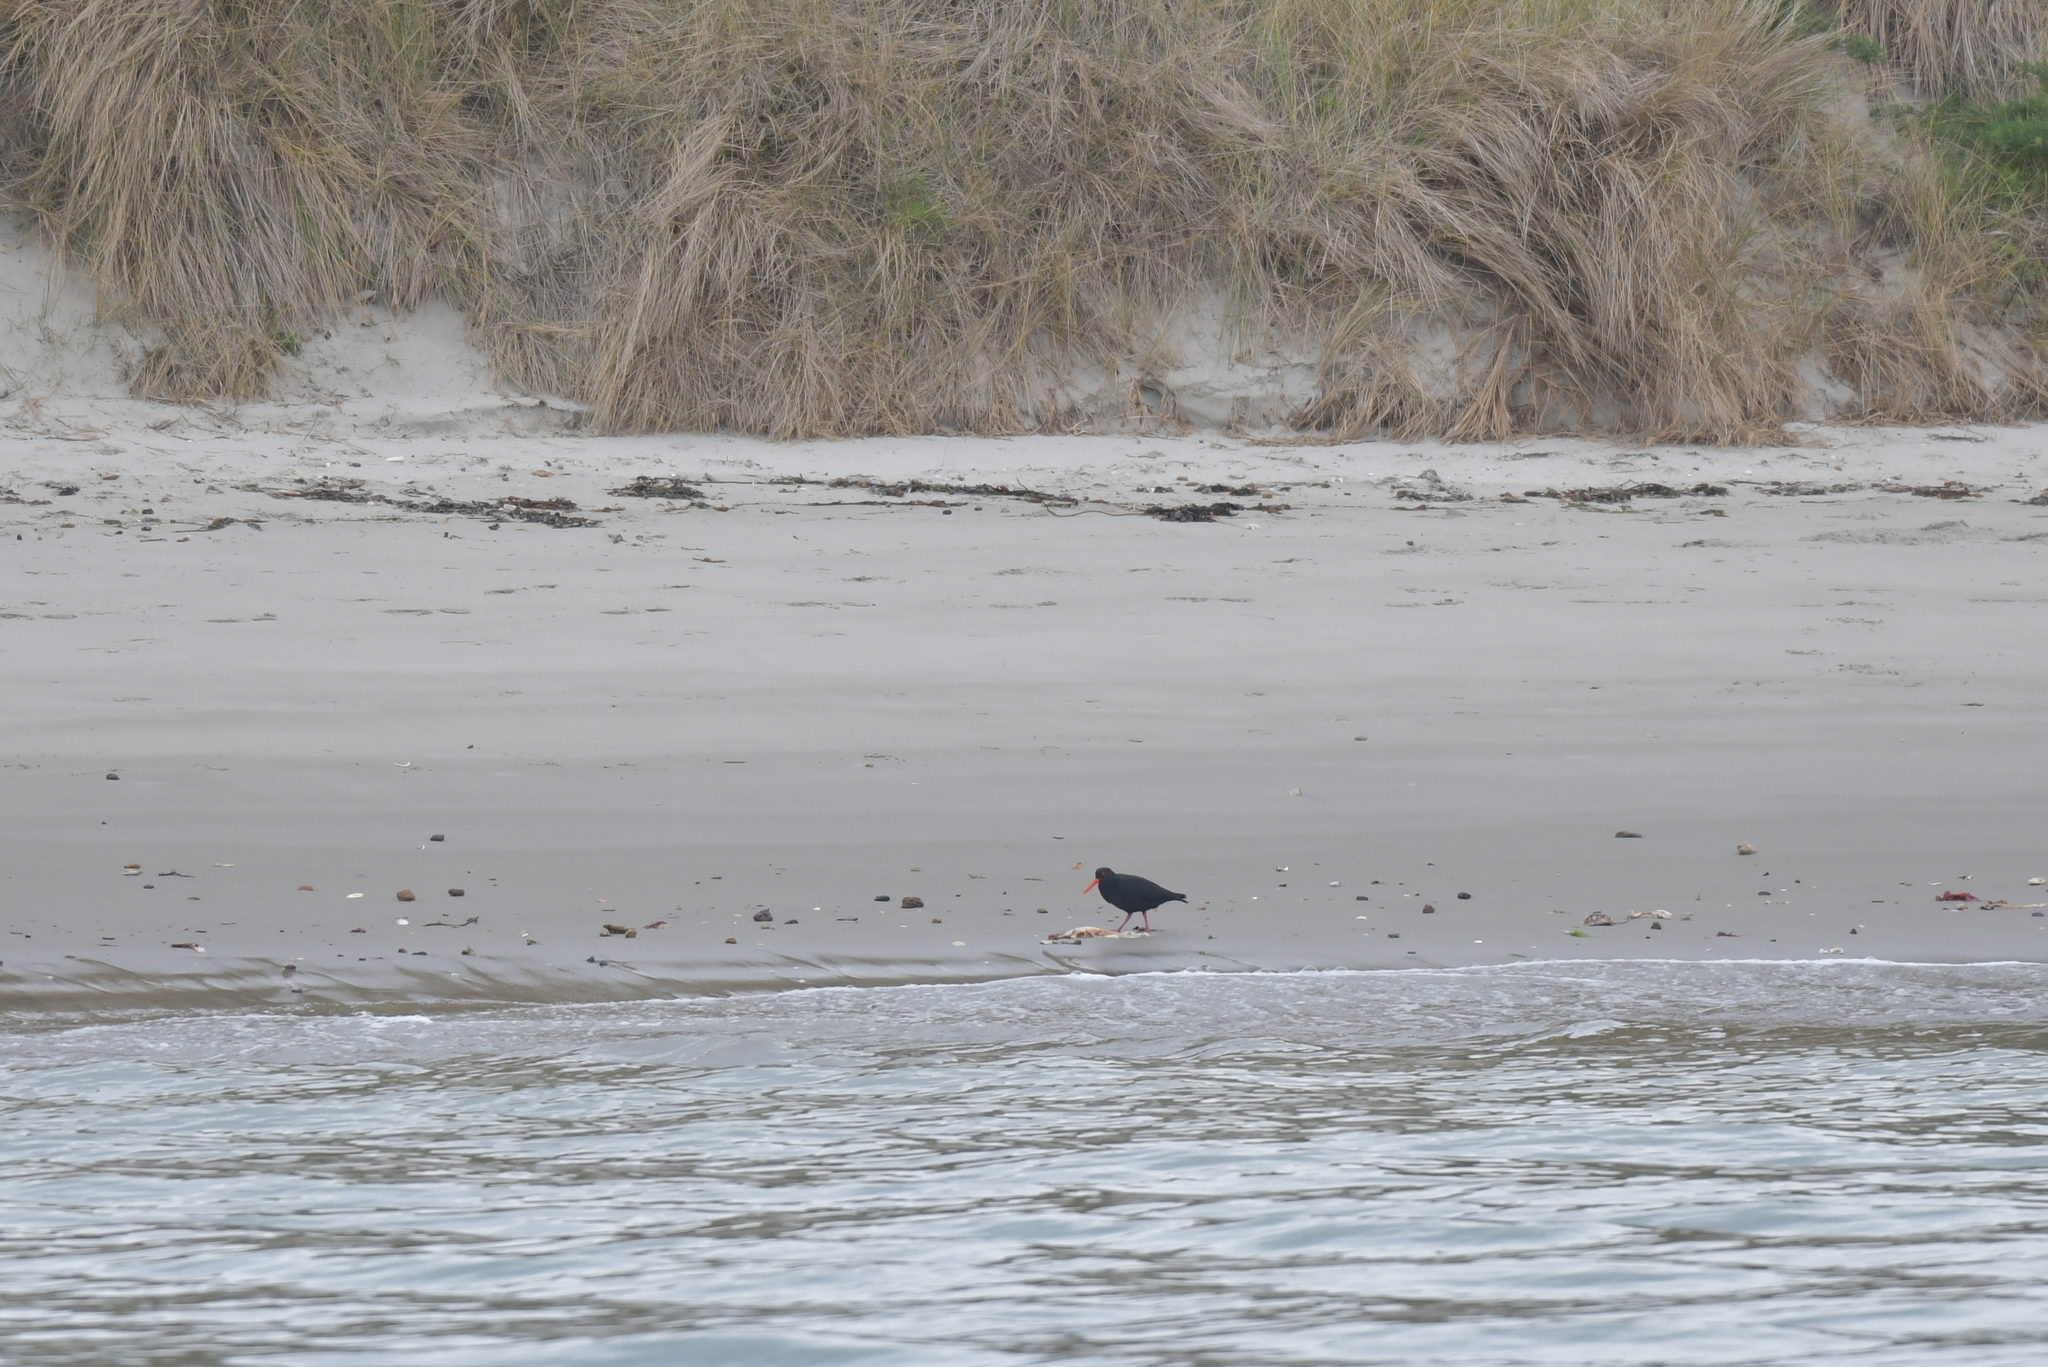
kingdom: Animalia
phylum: Chordata
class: Aves
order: Charadriiformes
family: Haematopodidae
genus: Haematopus
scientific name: Haematopus unicolor
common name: Variable oystercatcher
